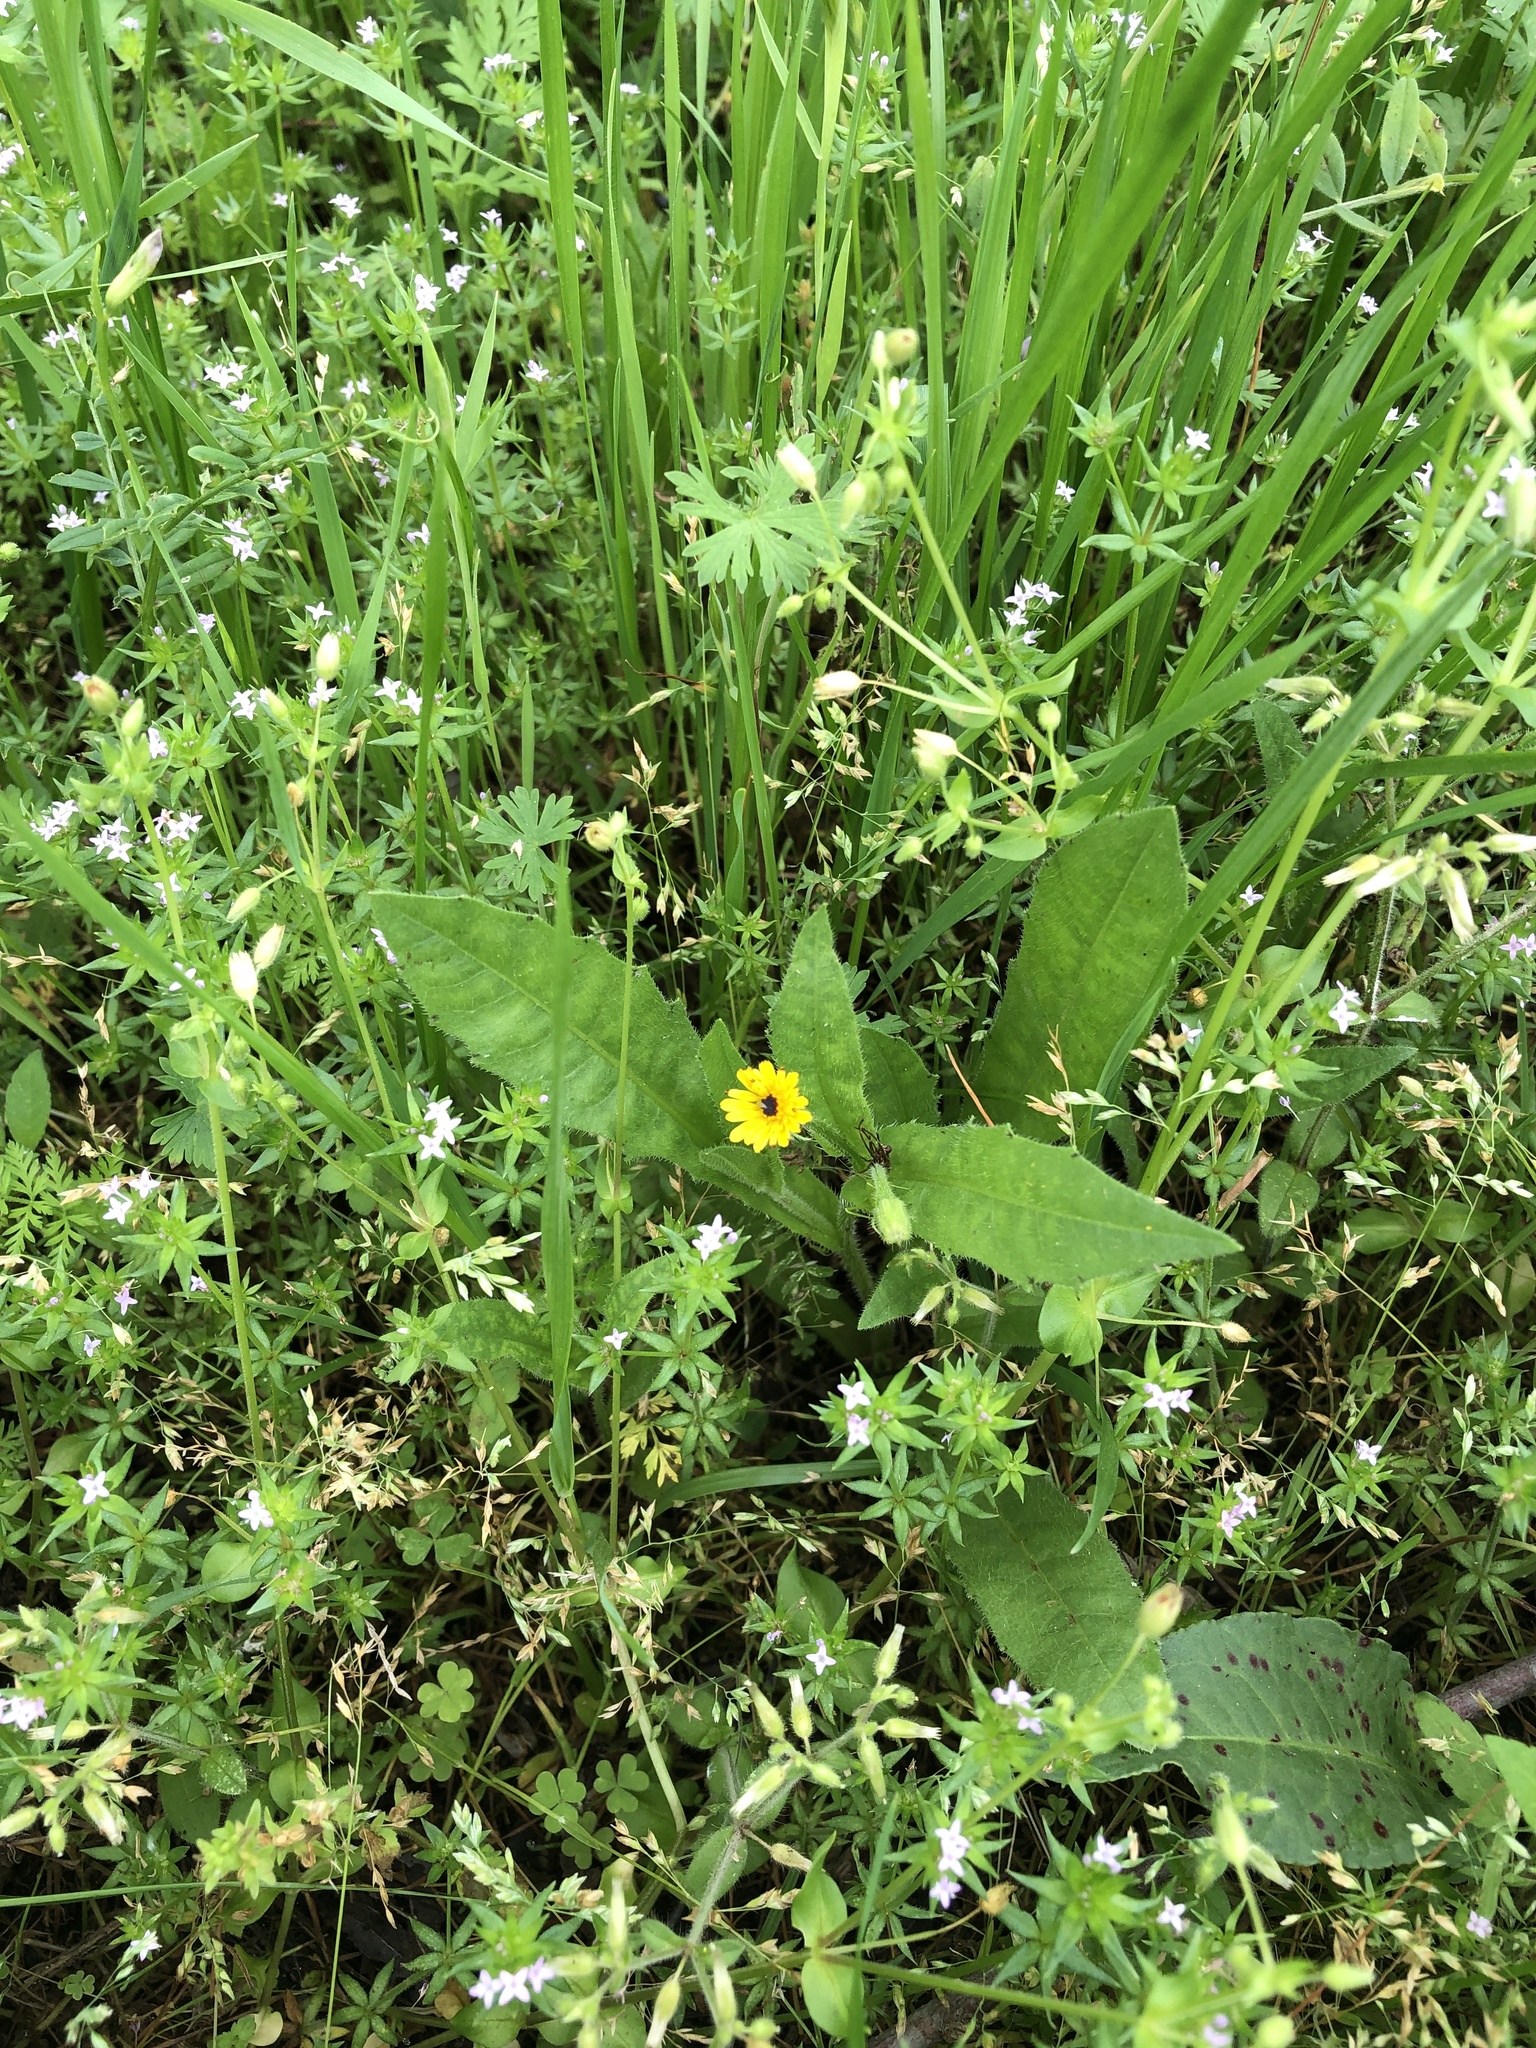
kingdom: Plantae
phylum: Tracheophyta
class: Magnoliopsida
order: Asterales
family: Asteraceae
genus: Hedypnois
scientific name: Hedypnois rhagadioloides
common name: Cretan weed
